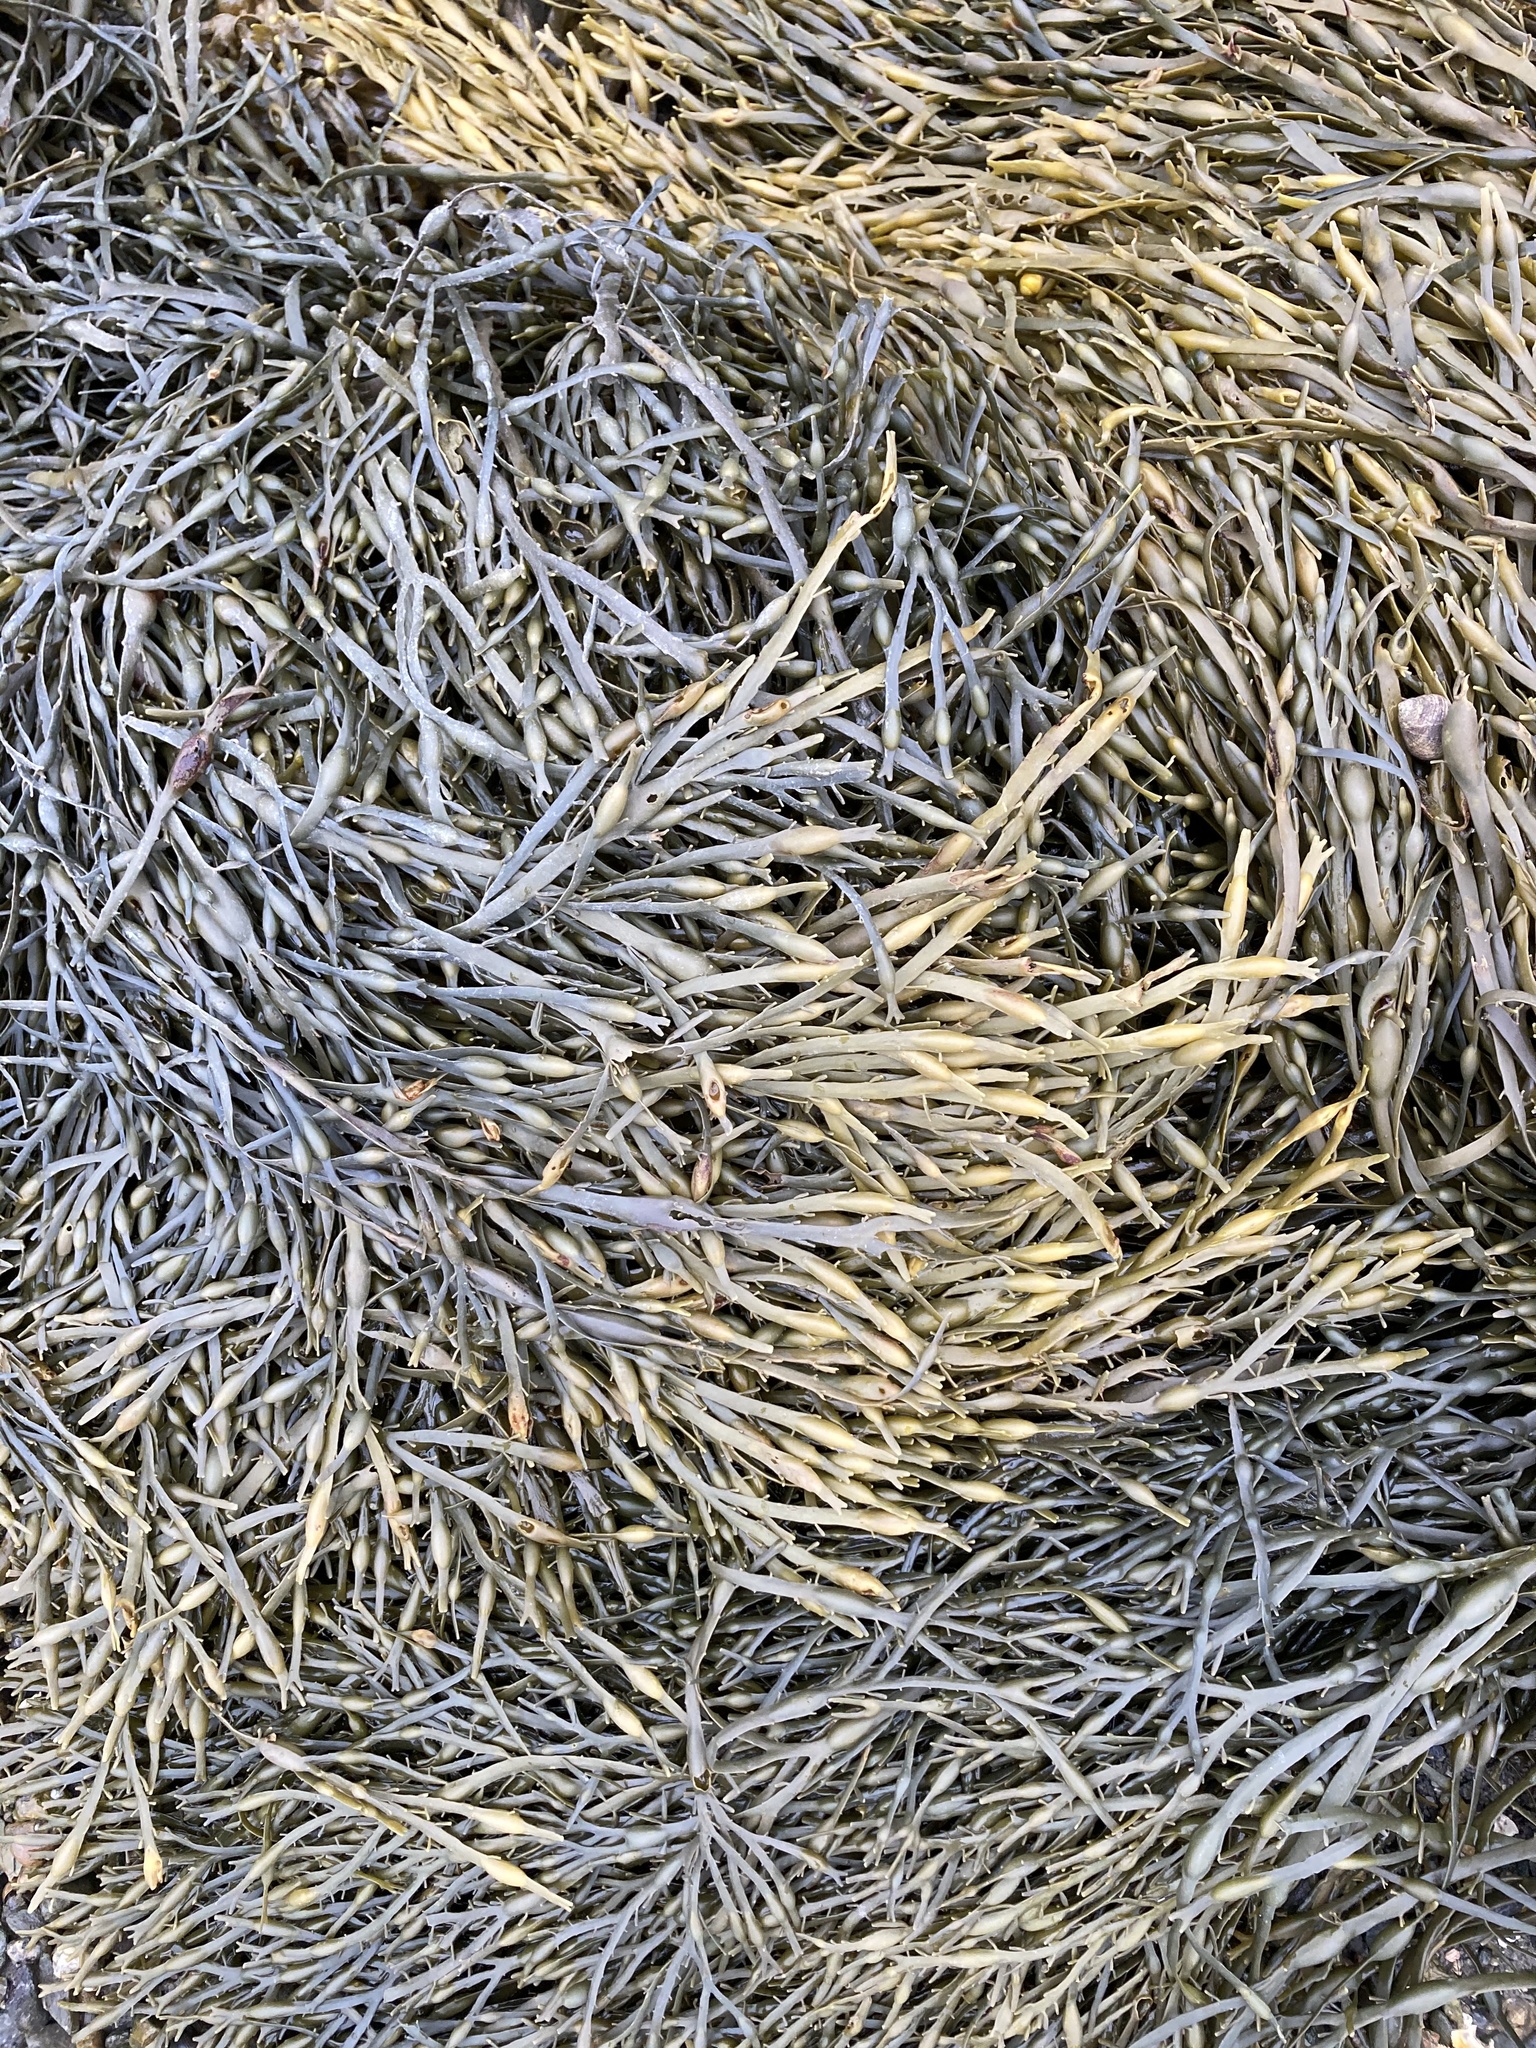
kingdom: Chromista
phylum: Ochrophyta
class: Phaeophyceae
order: Fucales
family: Fucaceae
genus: Ascophyllum
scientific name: Ascophyllum nodosum
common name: Knotted wrack
